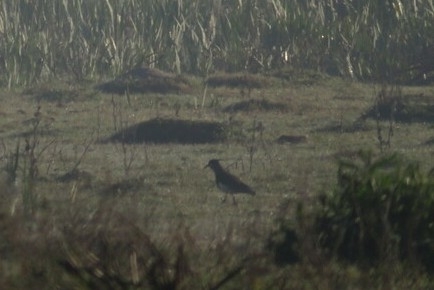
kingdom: Animalia
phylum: Chordata
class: Aves
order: Charadriiformes
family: Charadriidae
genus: Vanellus
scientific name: Vanellus chilensis
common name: Southern lapwing
